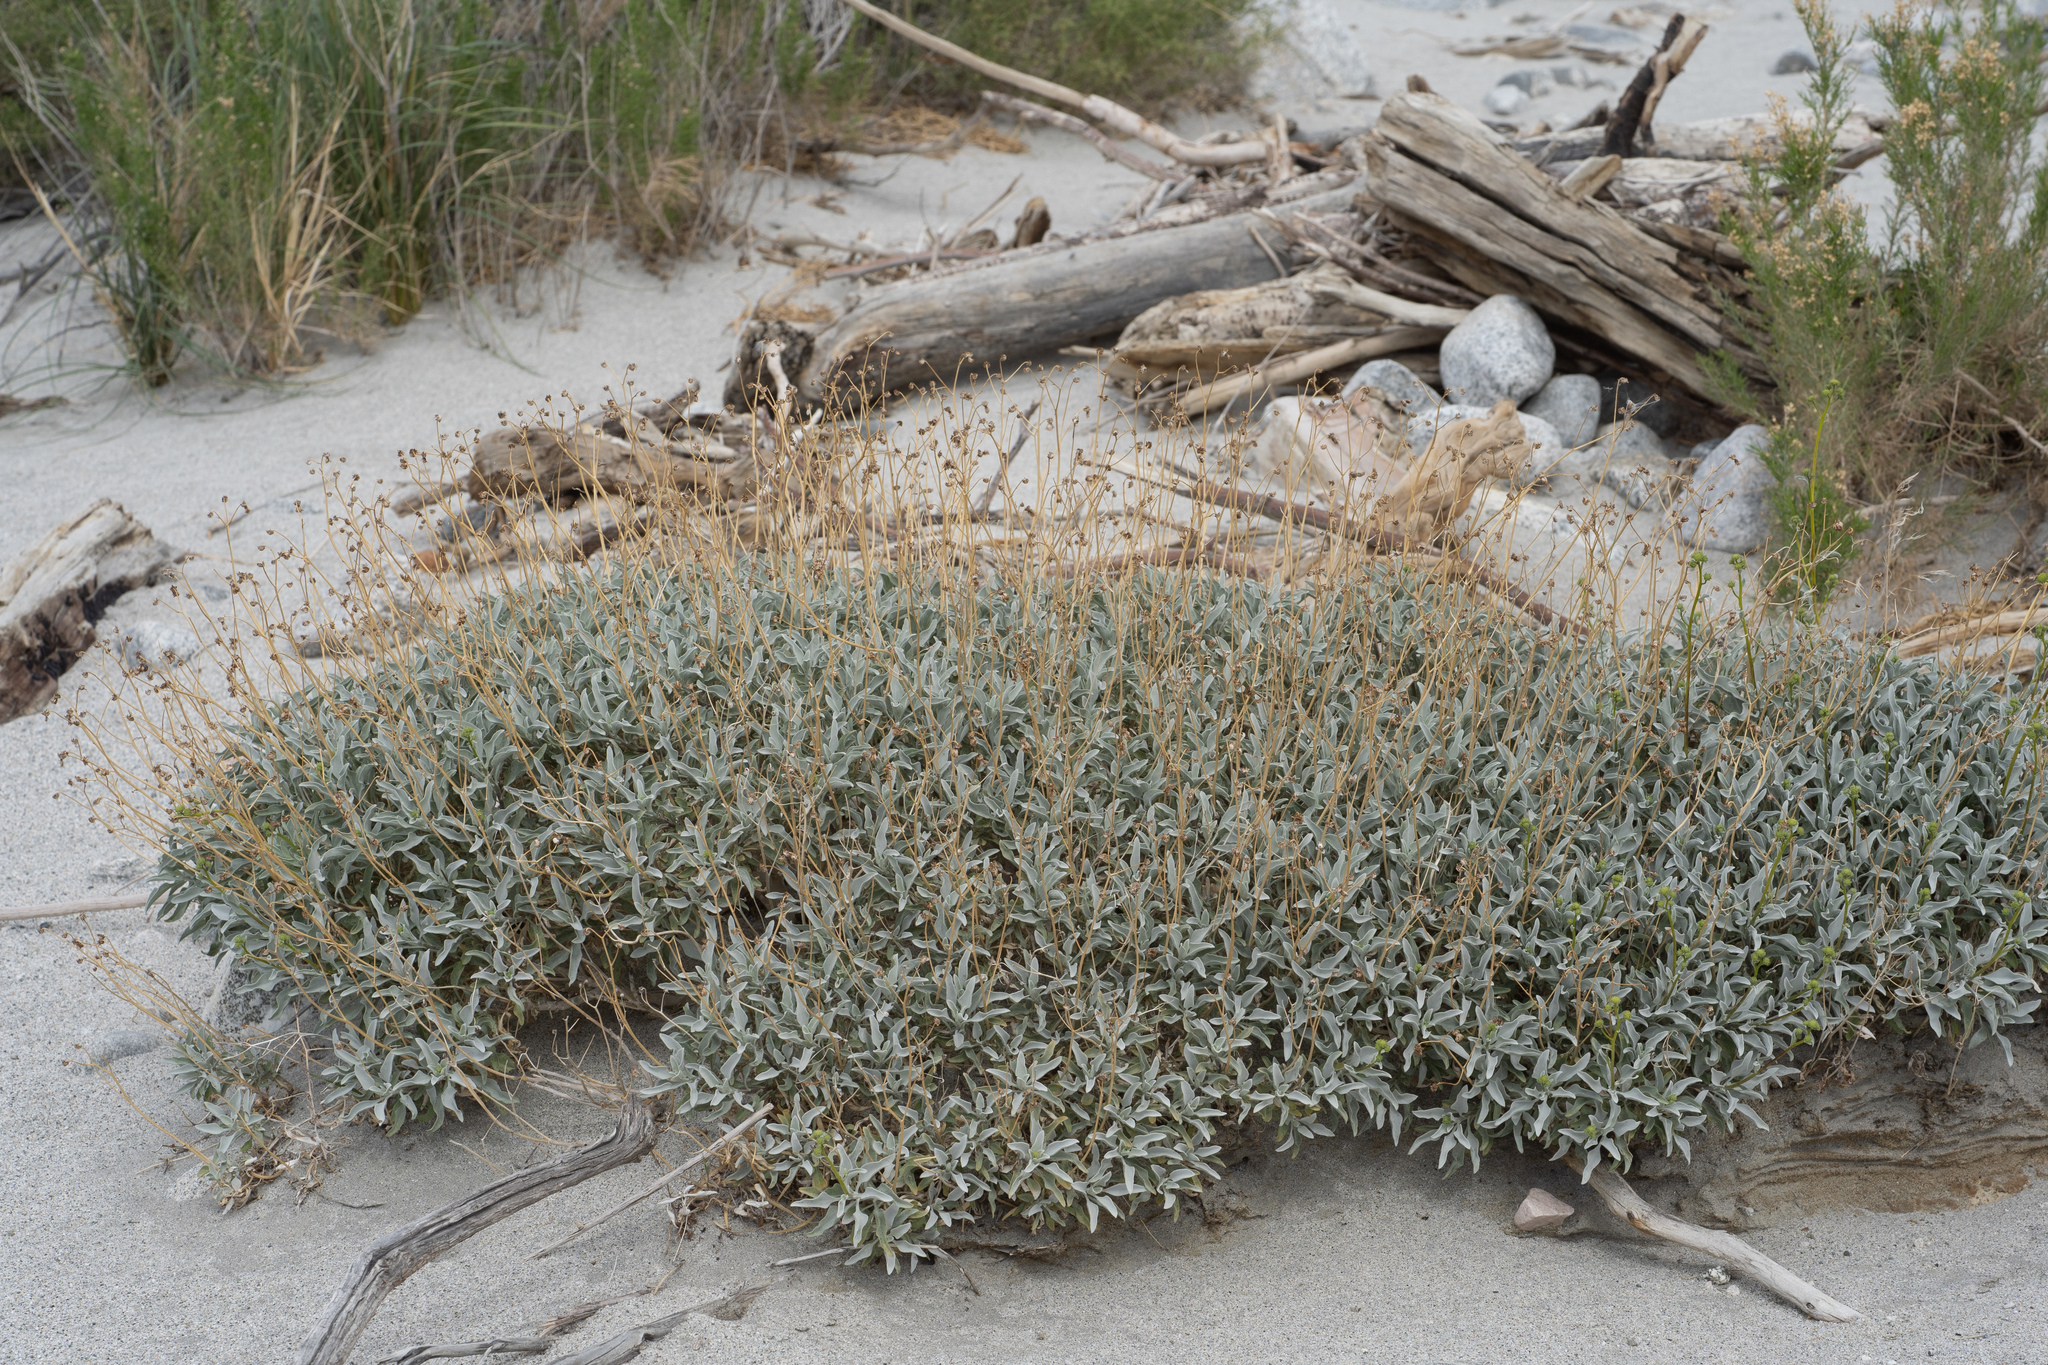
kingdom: Plantae
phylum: Tracheophyta
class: Magnoliopsida
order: Asterales
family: Asteraceae
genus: Encelia
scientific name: Encelia farinosa
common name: Brittlebush
